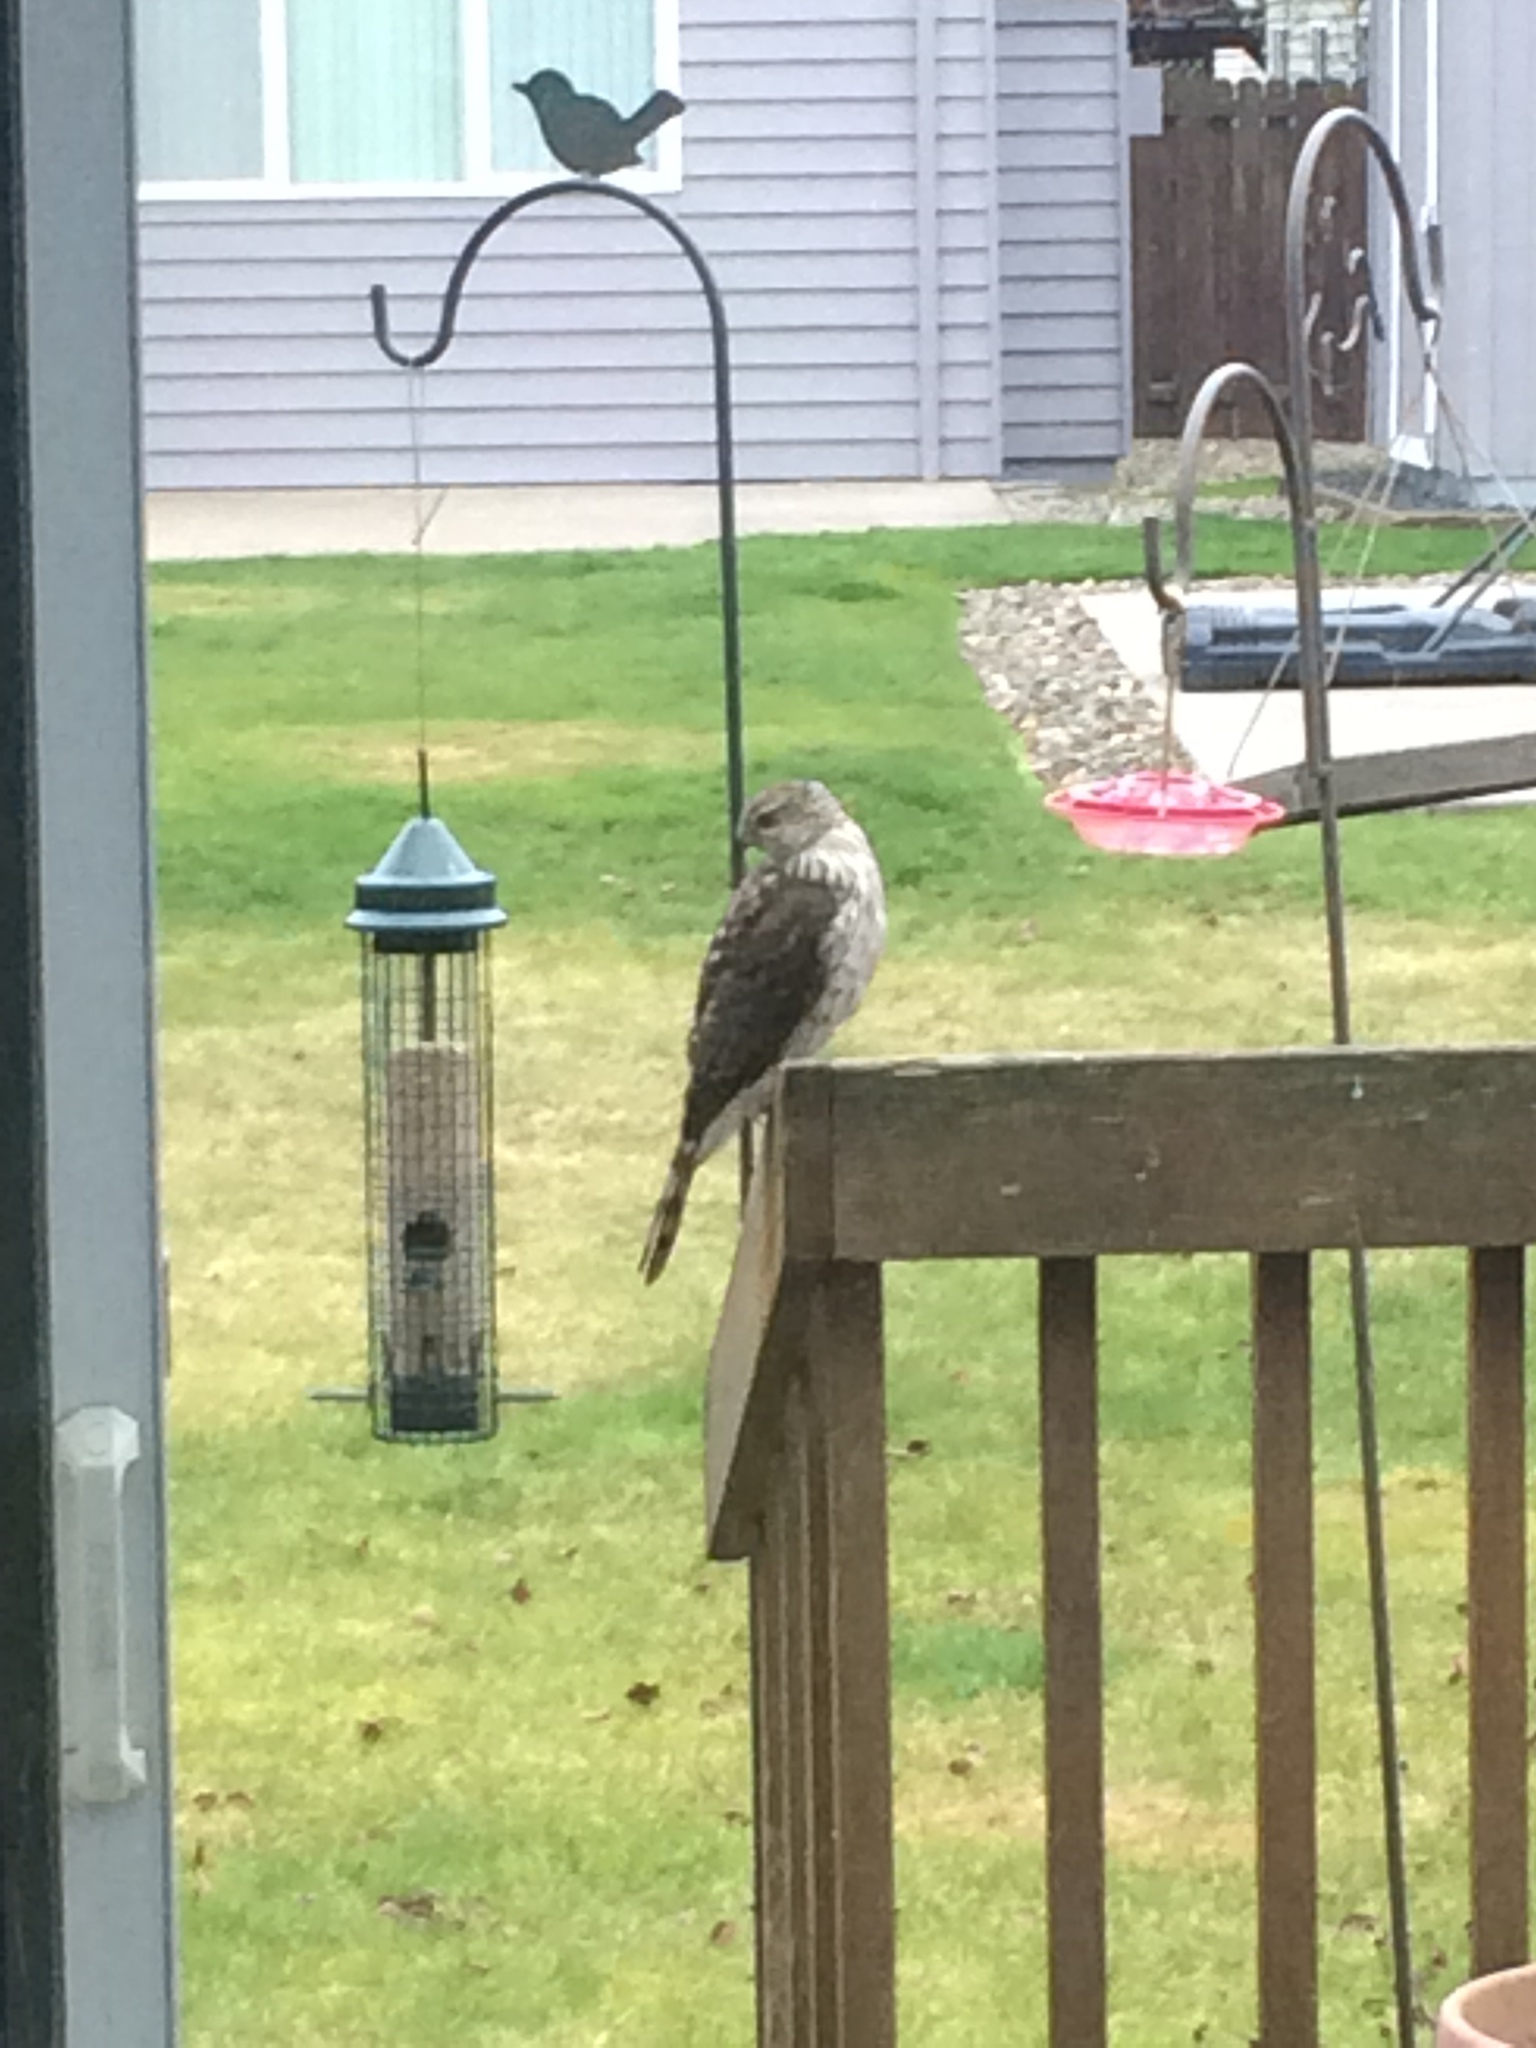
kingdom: Animalia
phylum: Chordata
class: Aves
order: Accipitriformes
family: Accipitridae
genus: Accipiter
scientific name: Accipiter cooperii
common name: Cooper's hawk
